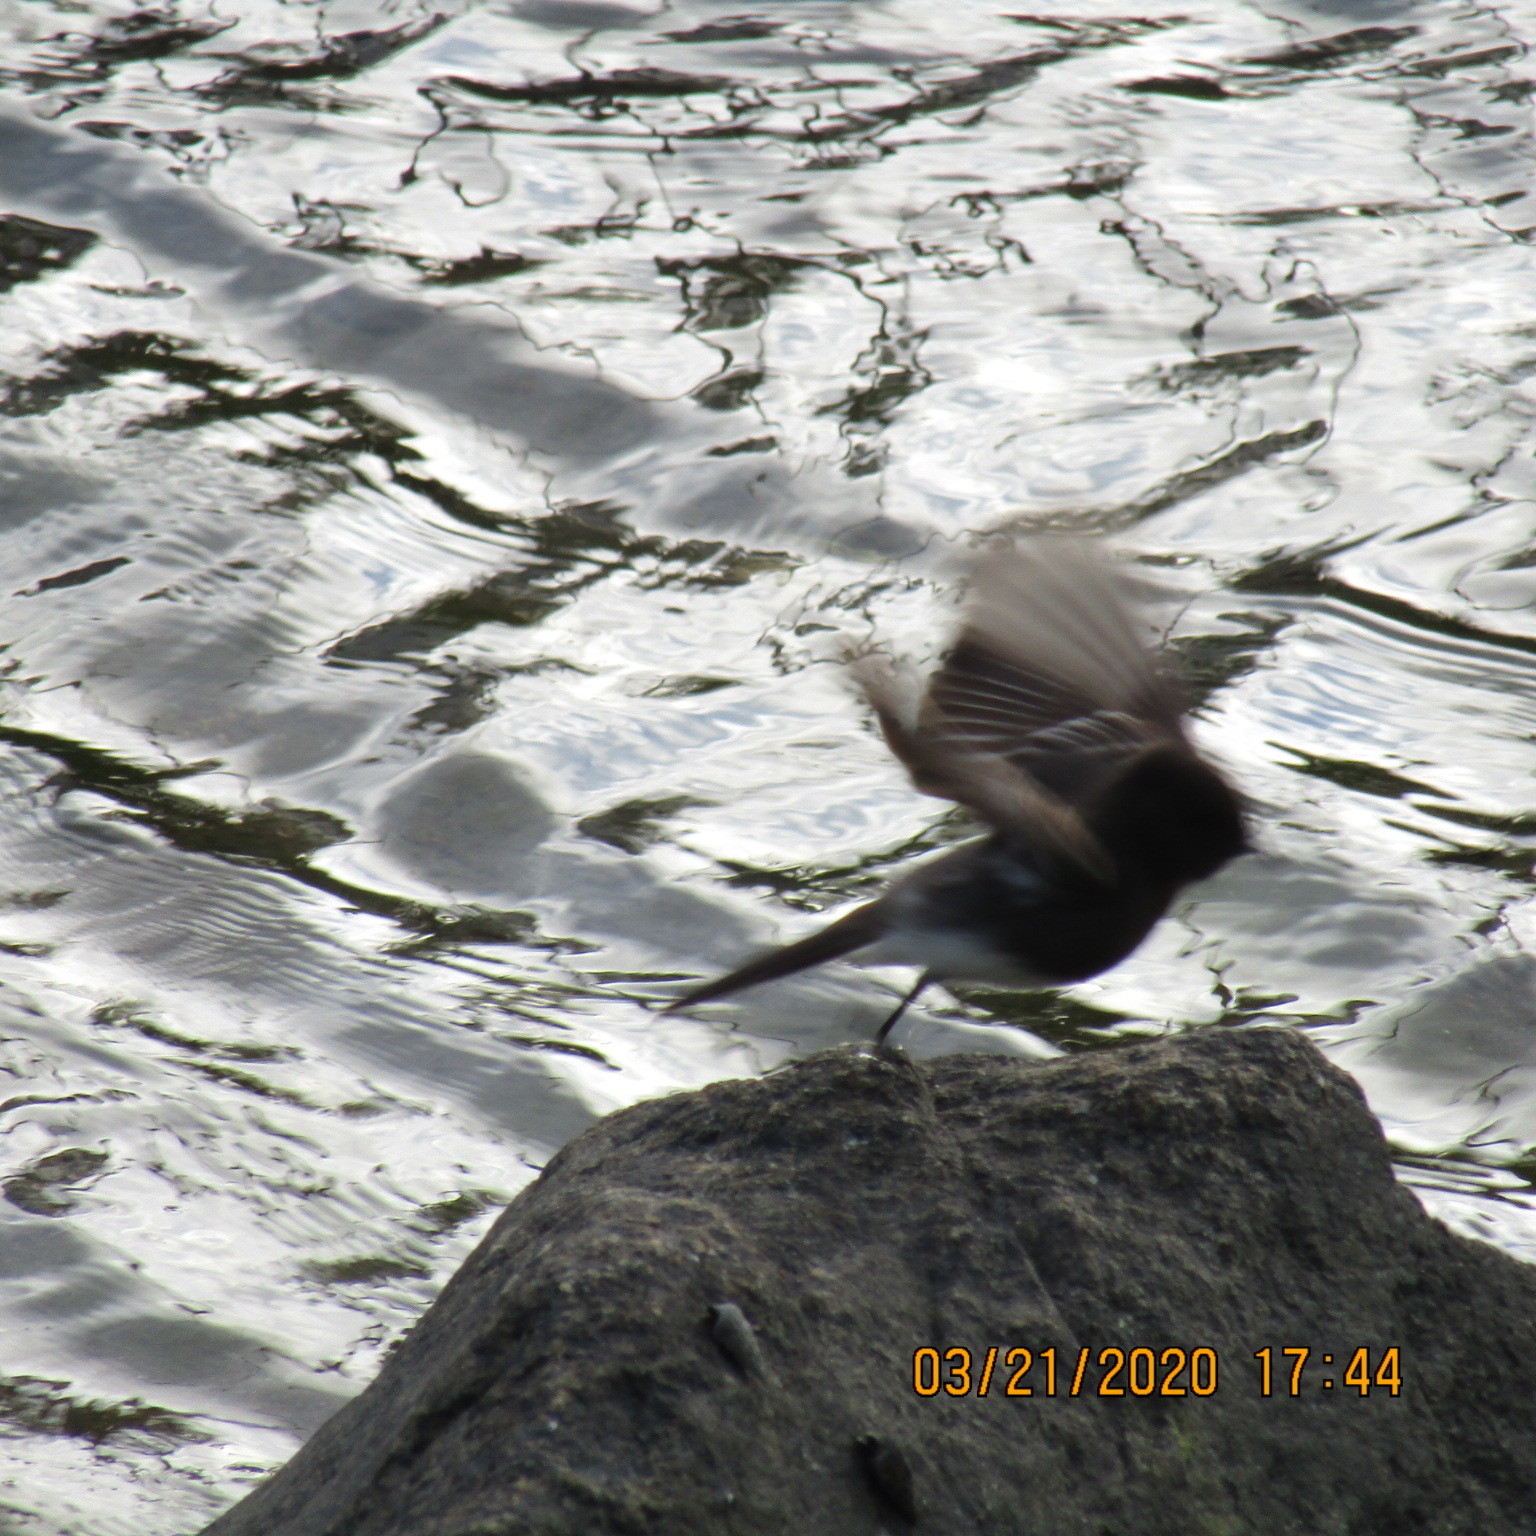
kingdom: Animalia
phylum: Chordata
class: Aves
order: Passeriformes
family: Tyrannidae
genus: Sayornis
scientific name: Sayornis nigricans
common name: Black phoebe
